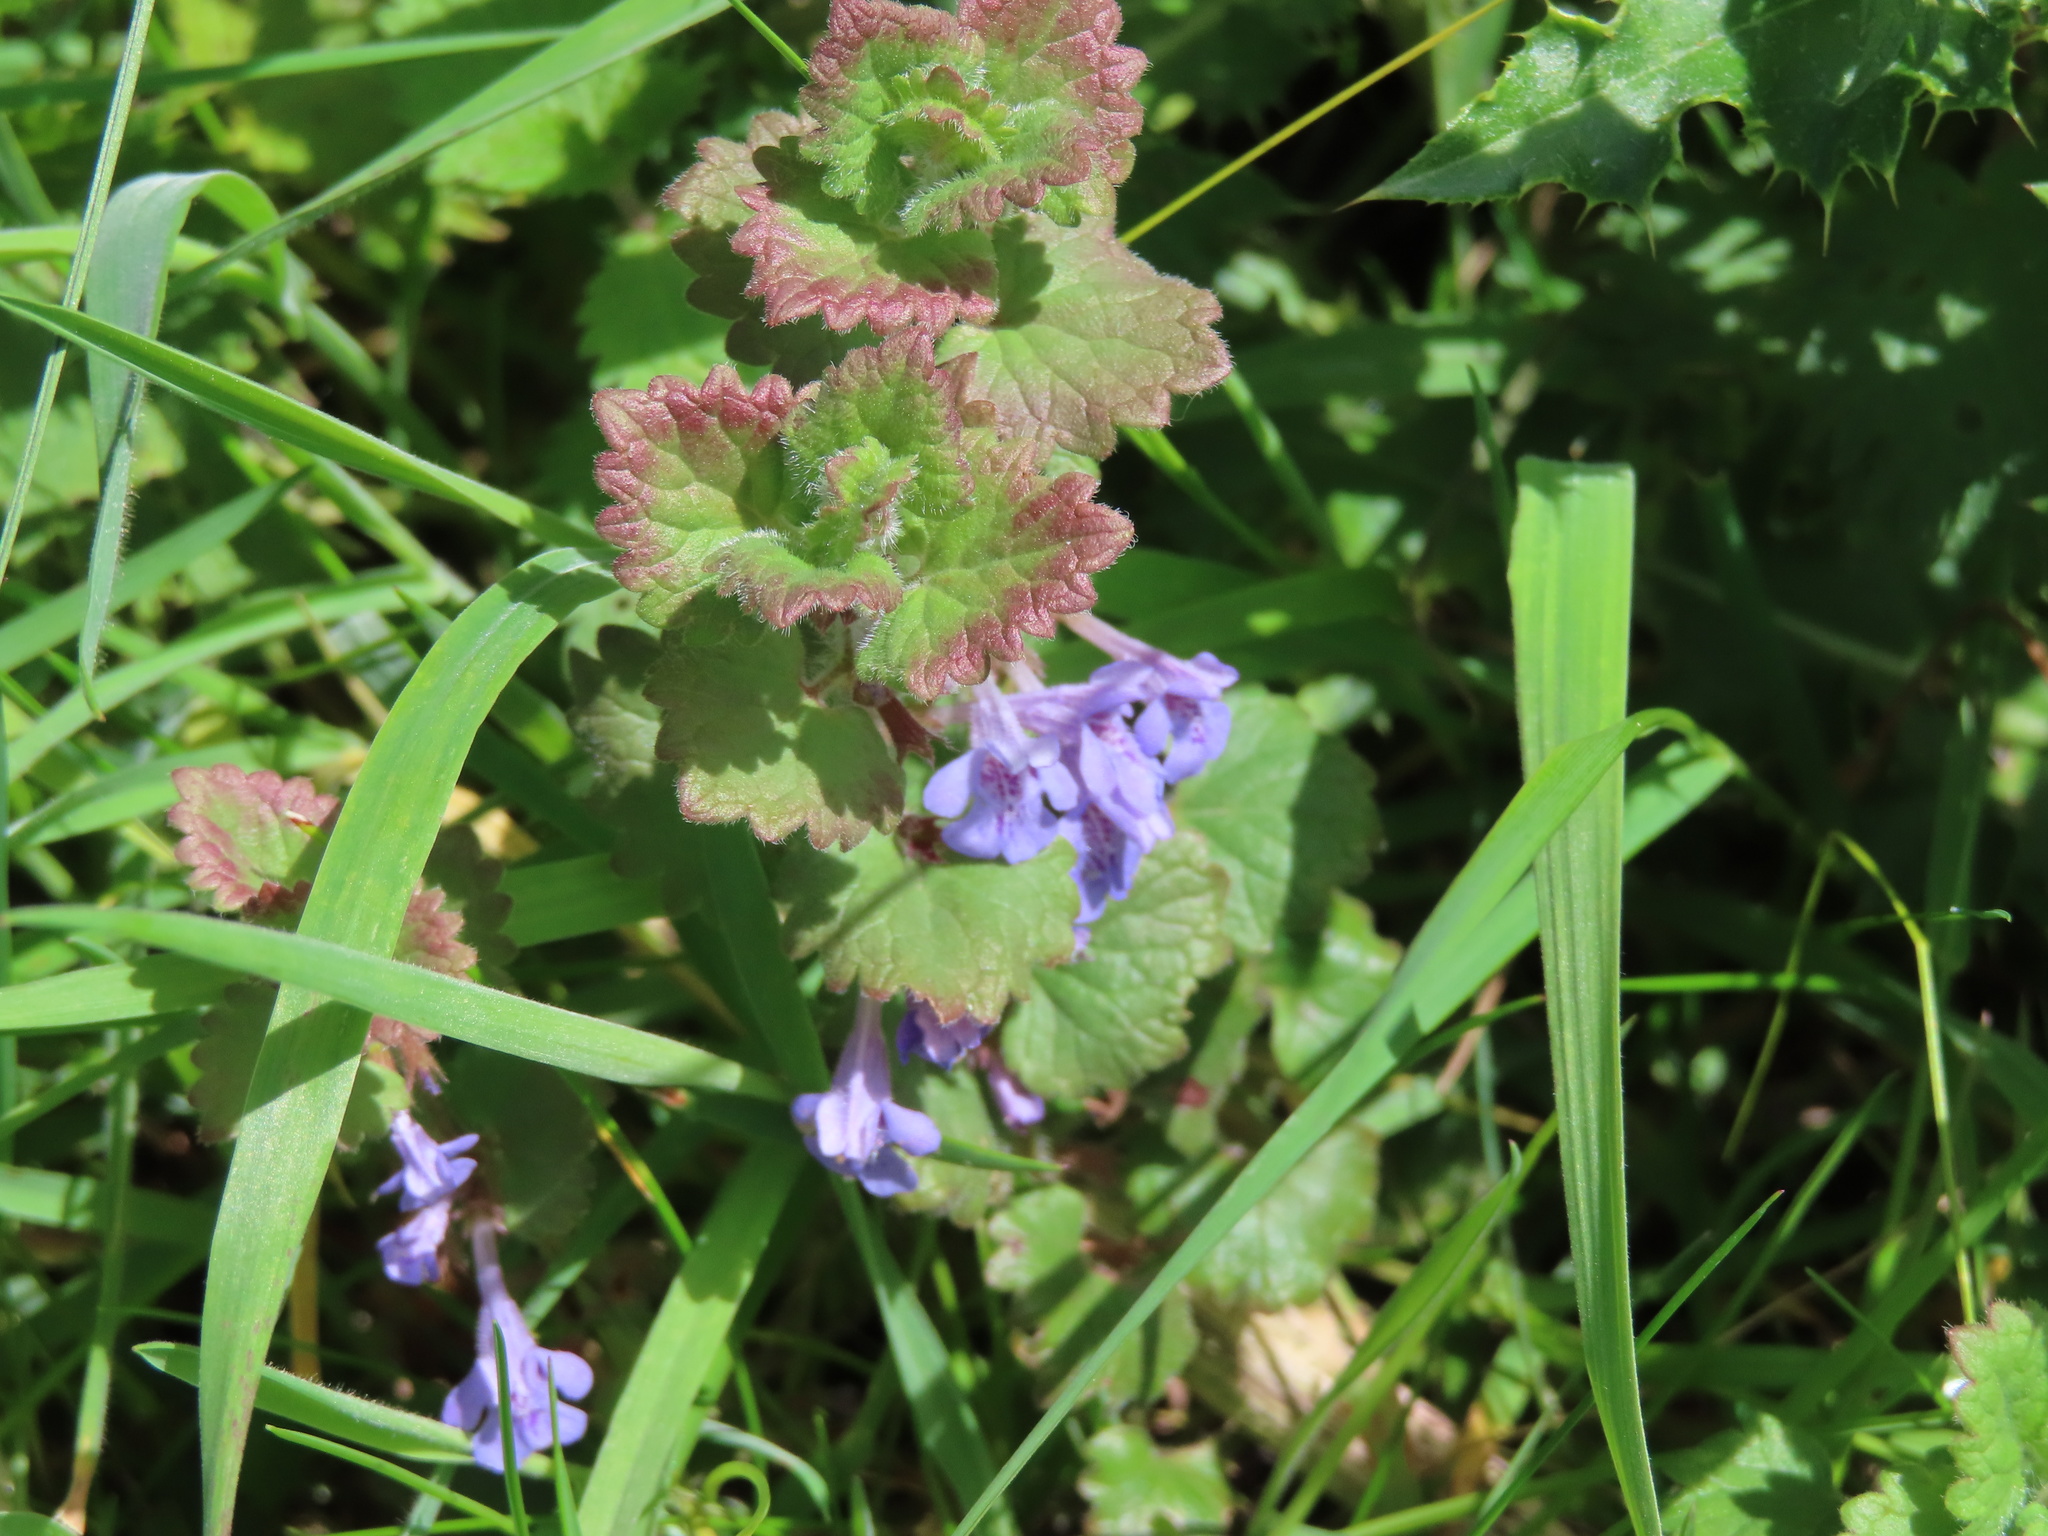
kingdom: Plantae
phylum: Tracheophyta
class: Magnoliopsida
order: Lamiales
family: Lamiaceae
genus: Glechoma
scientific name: Glechoma hederacea
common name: Ground ivy
